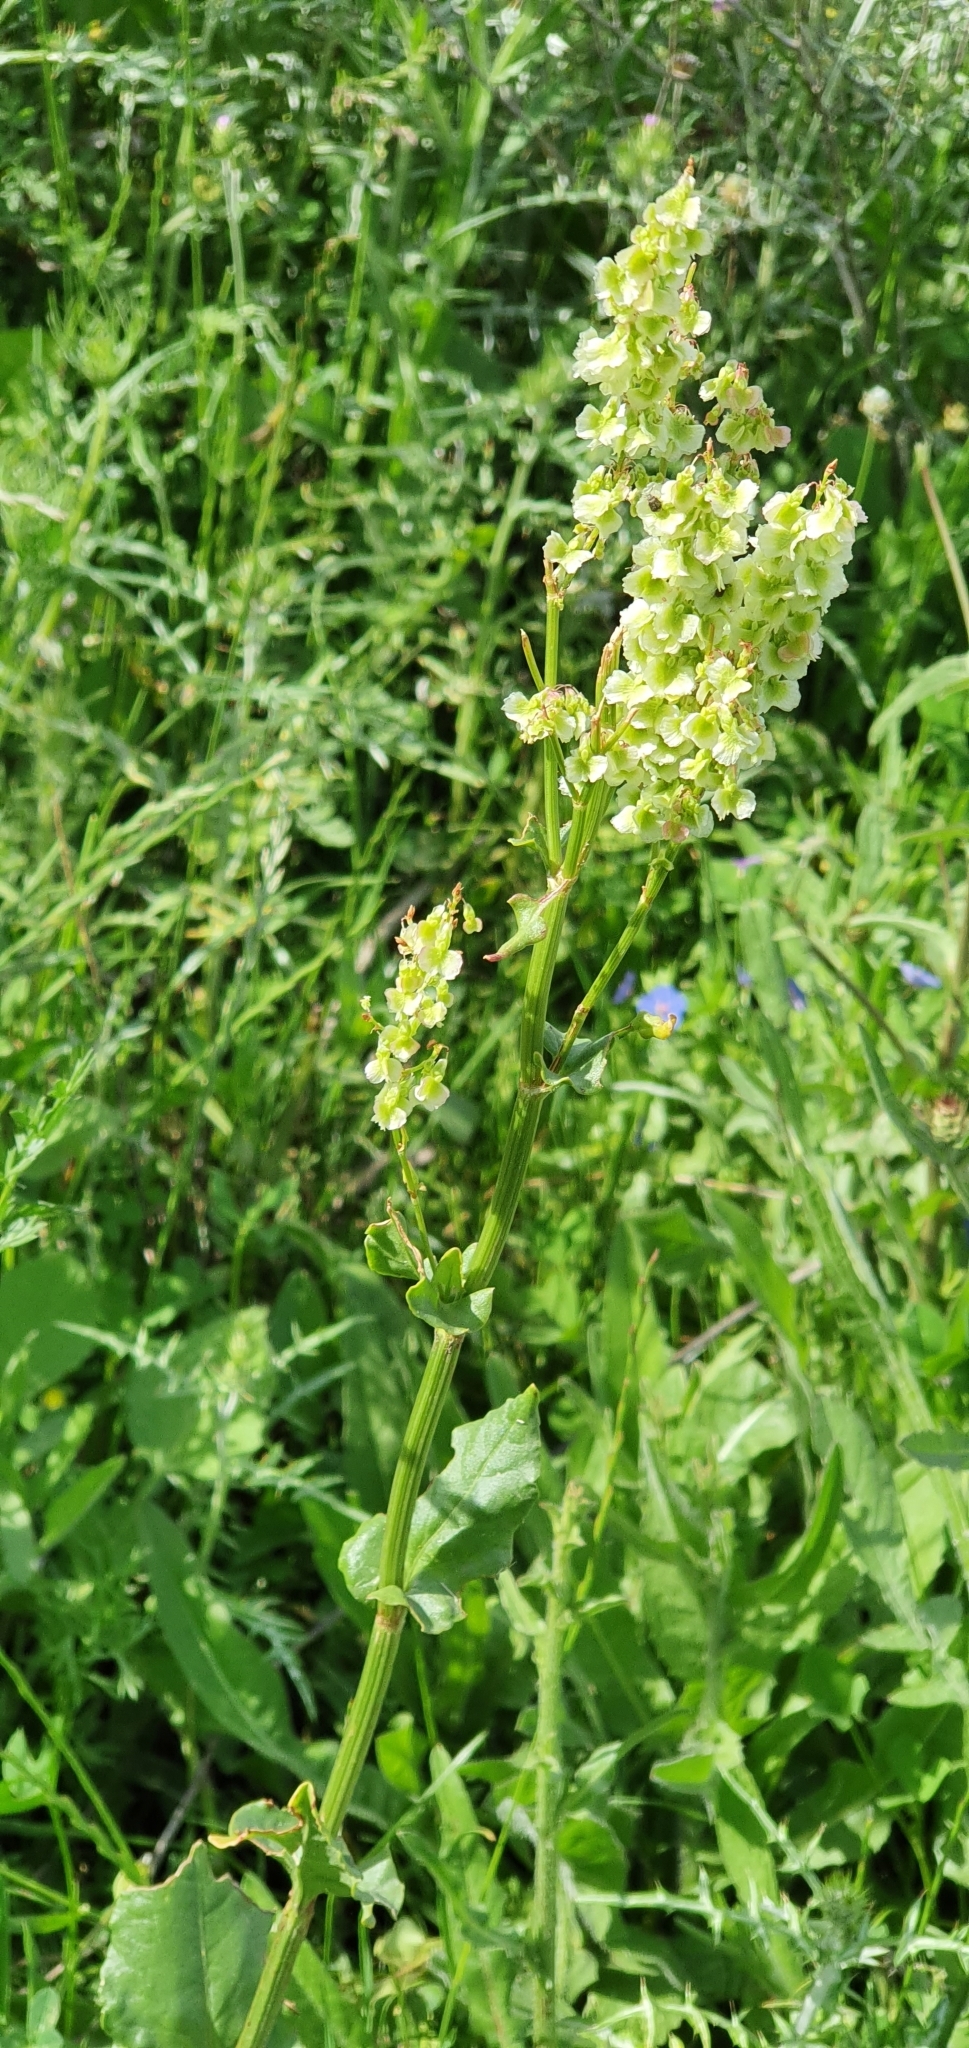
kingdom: Plantae
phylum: Tracheophyta
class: Magnoliopsida
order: Caryophyllales
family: Polygonaceae
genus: Rumex
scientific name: Rumex thyrsoides
